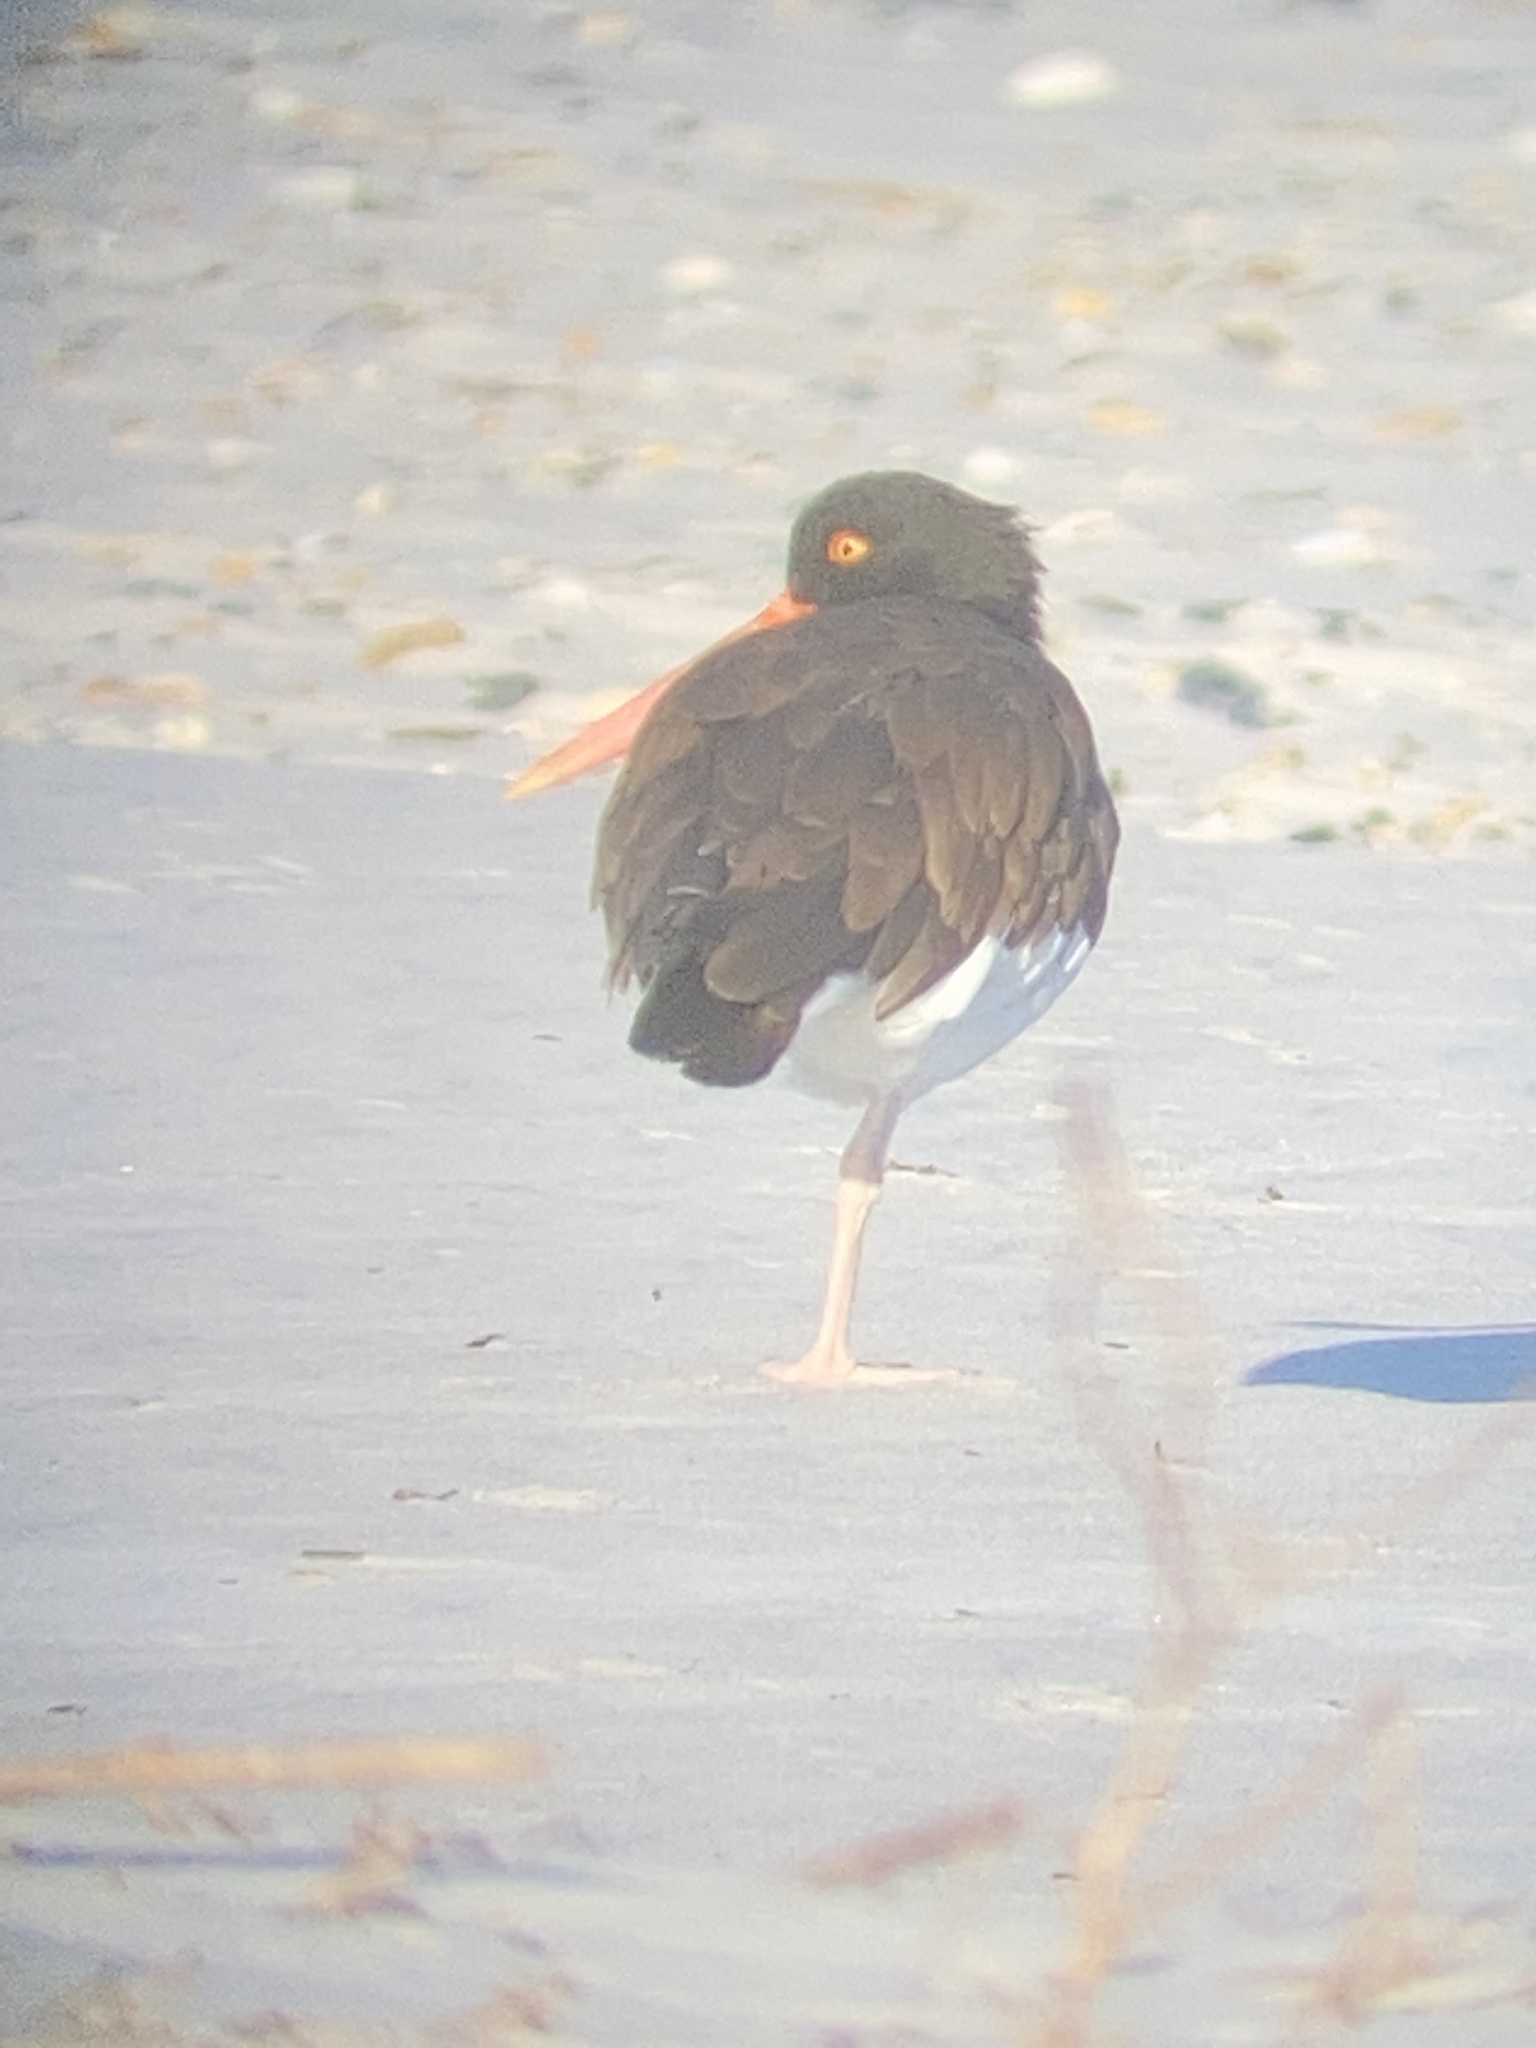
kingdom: Animalia
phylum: Chordata
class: Aves
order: Charadriiformes
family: Haematopodidae
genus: Haematopus
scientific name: Haematopus palliatus
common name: American oystercatcher
